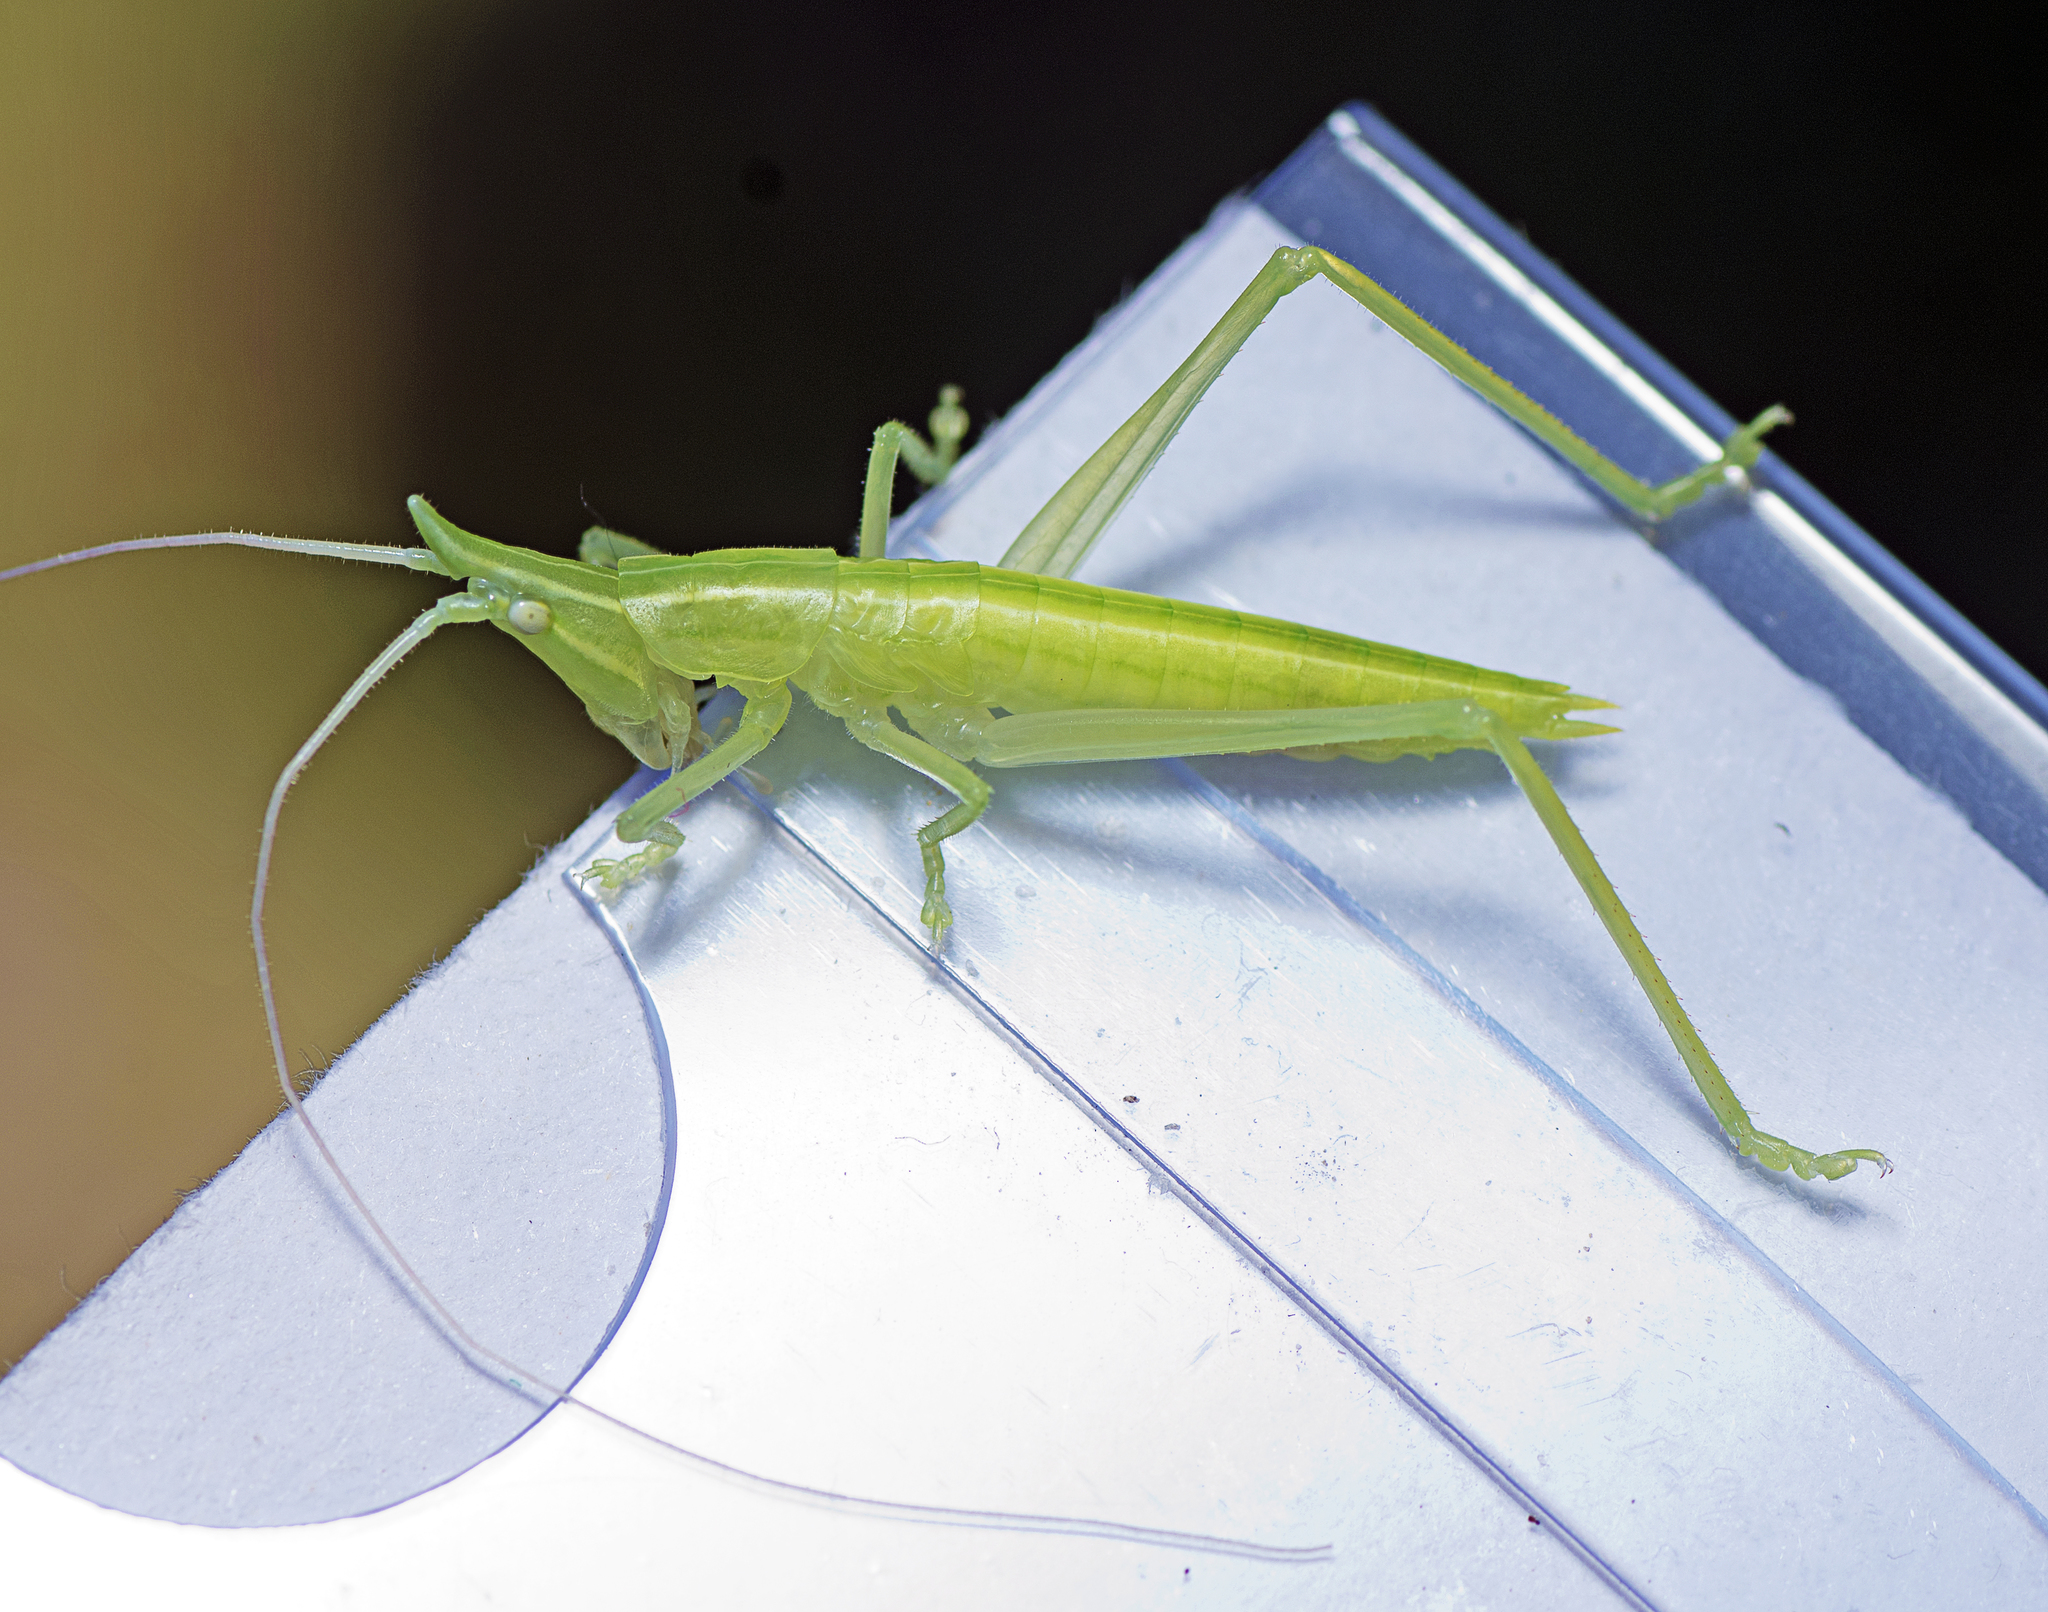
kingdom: Animalia
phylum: Arthropoda
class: Insecta
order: Orthoptera
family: Tettigoniidae
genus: Pseudorhynchus
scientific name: Pseudorhynchus
